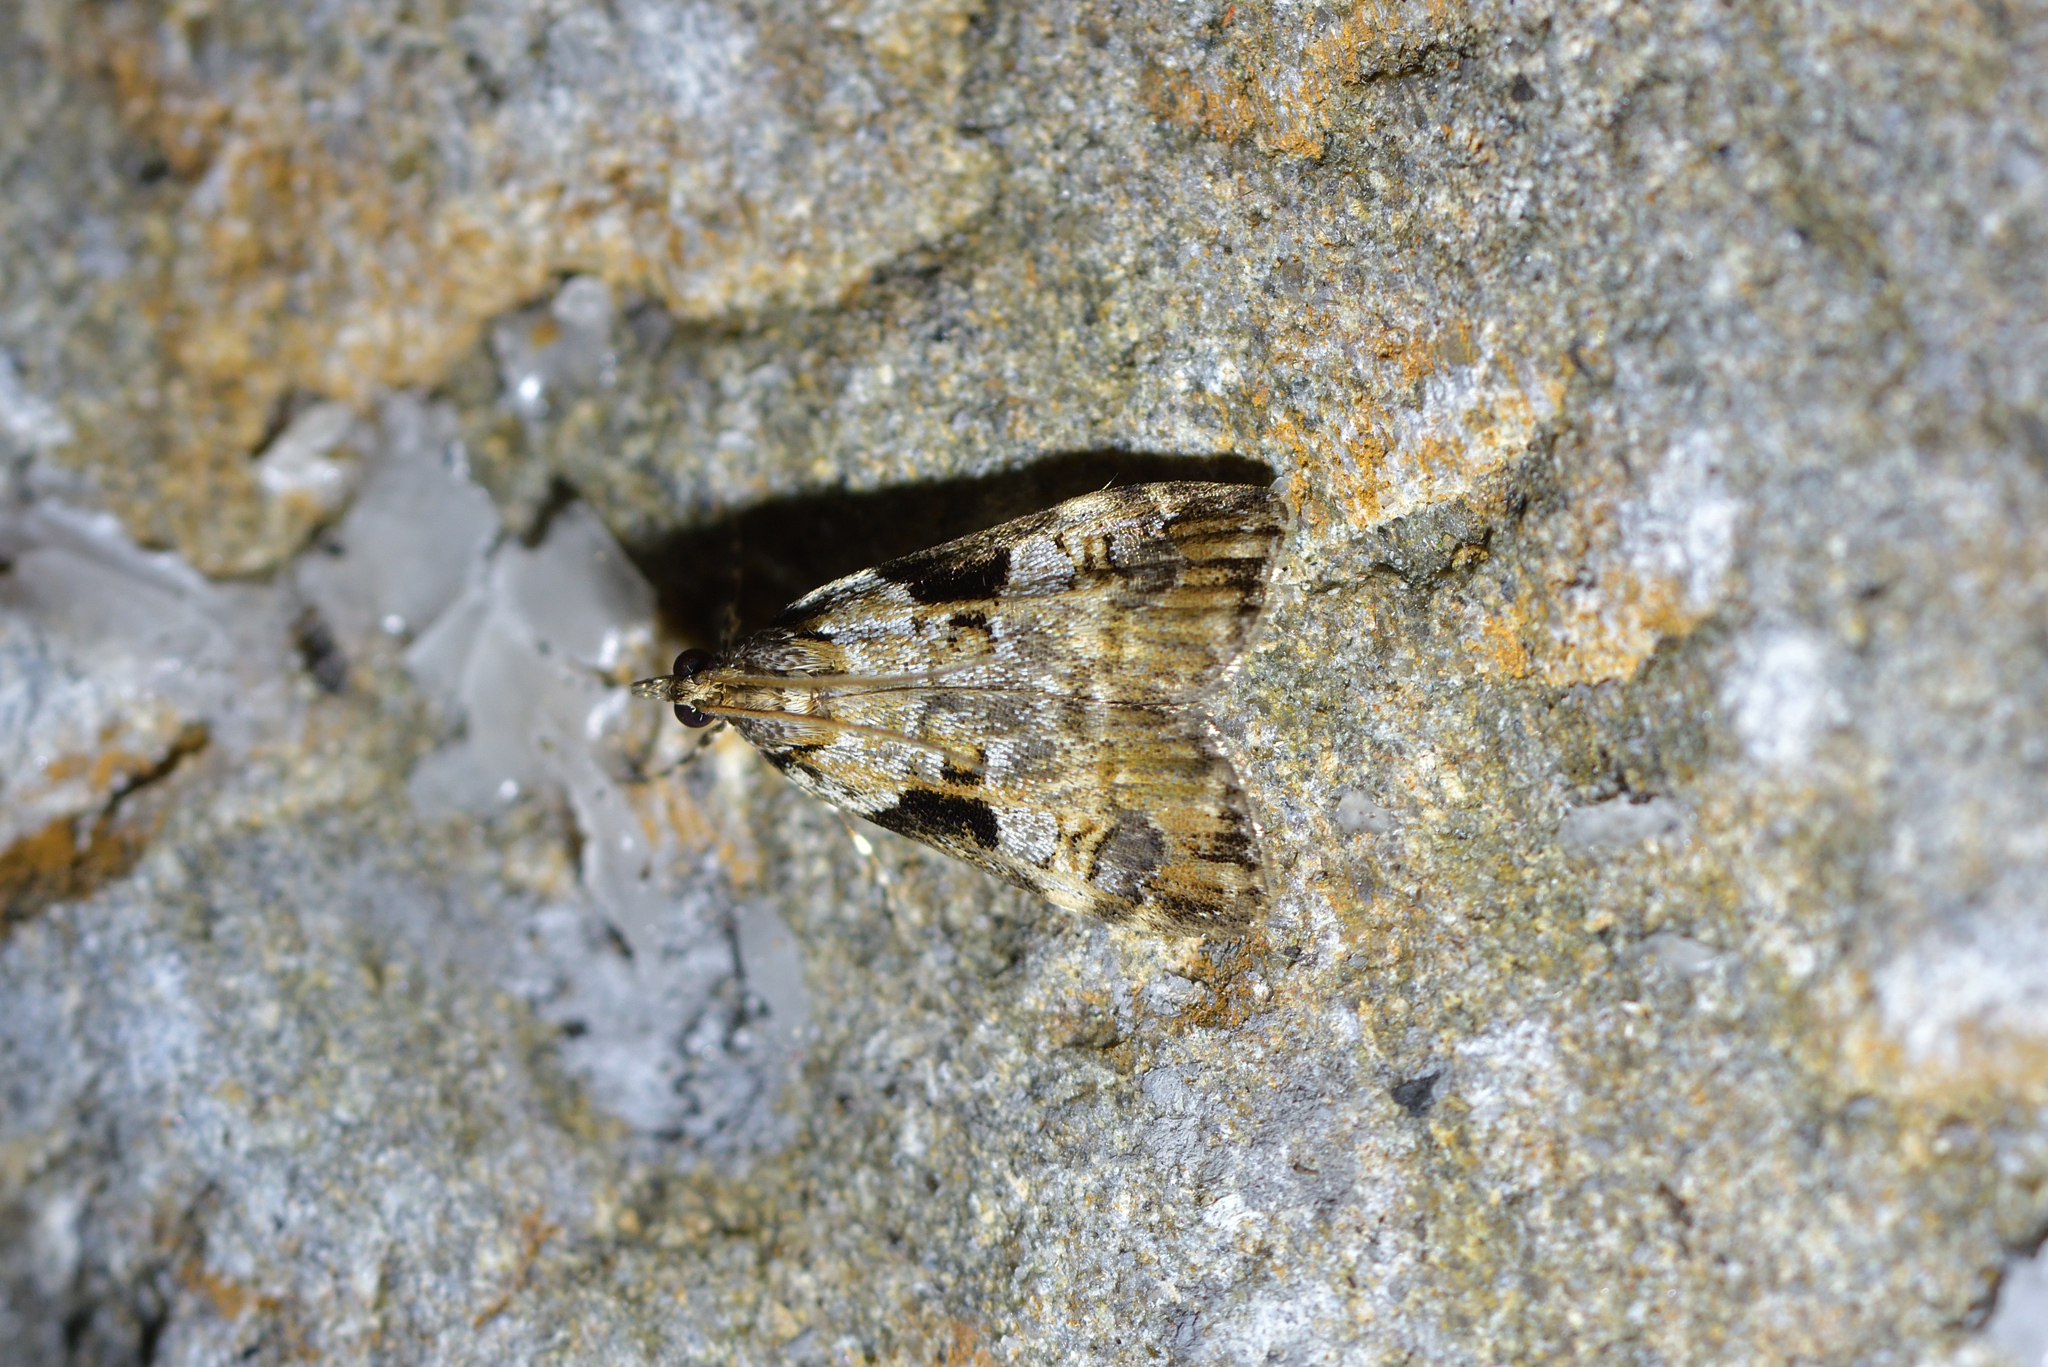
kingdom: Animalia
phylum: Arthropoda
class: Insecta
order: Lepidoptera
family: Crambidae
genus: Scoparia
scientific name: Scoparia acharis
